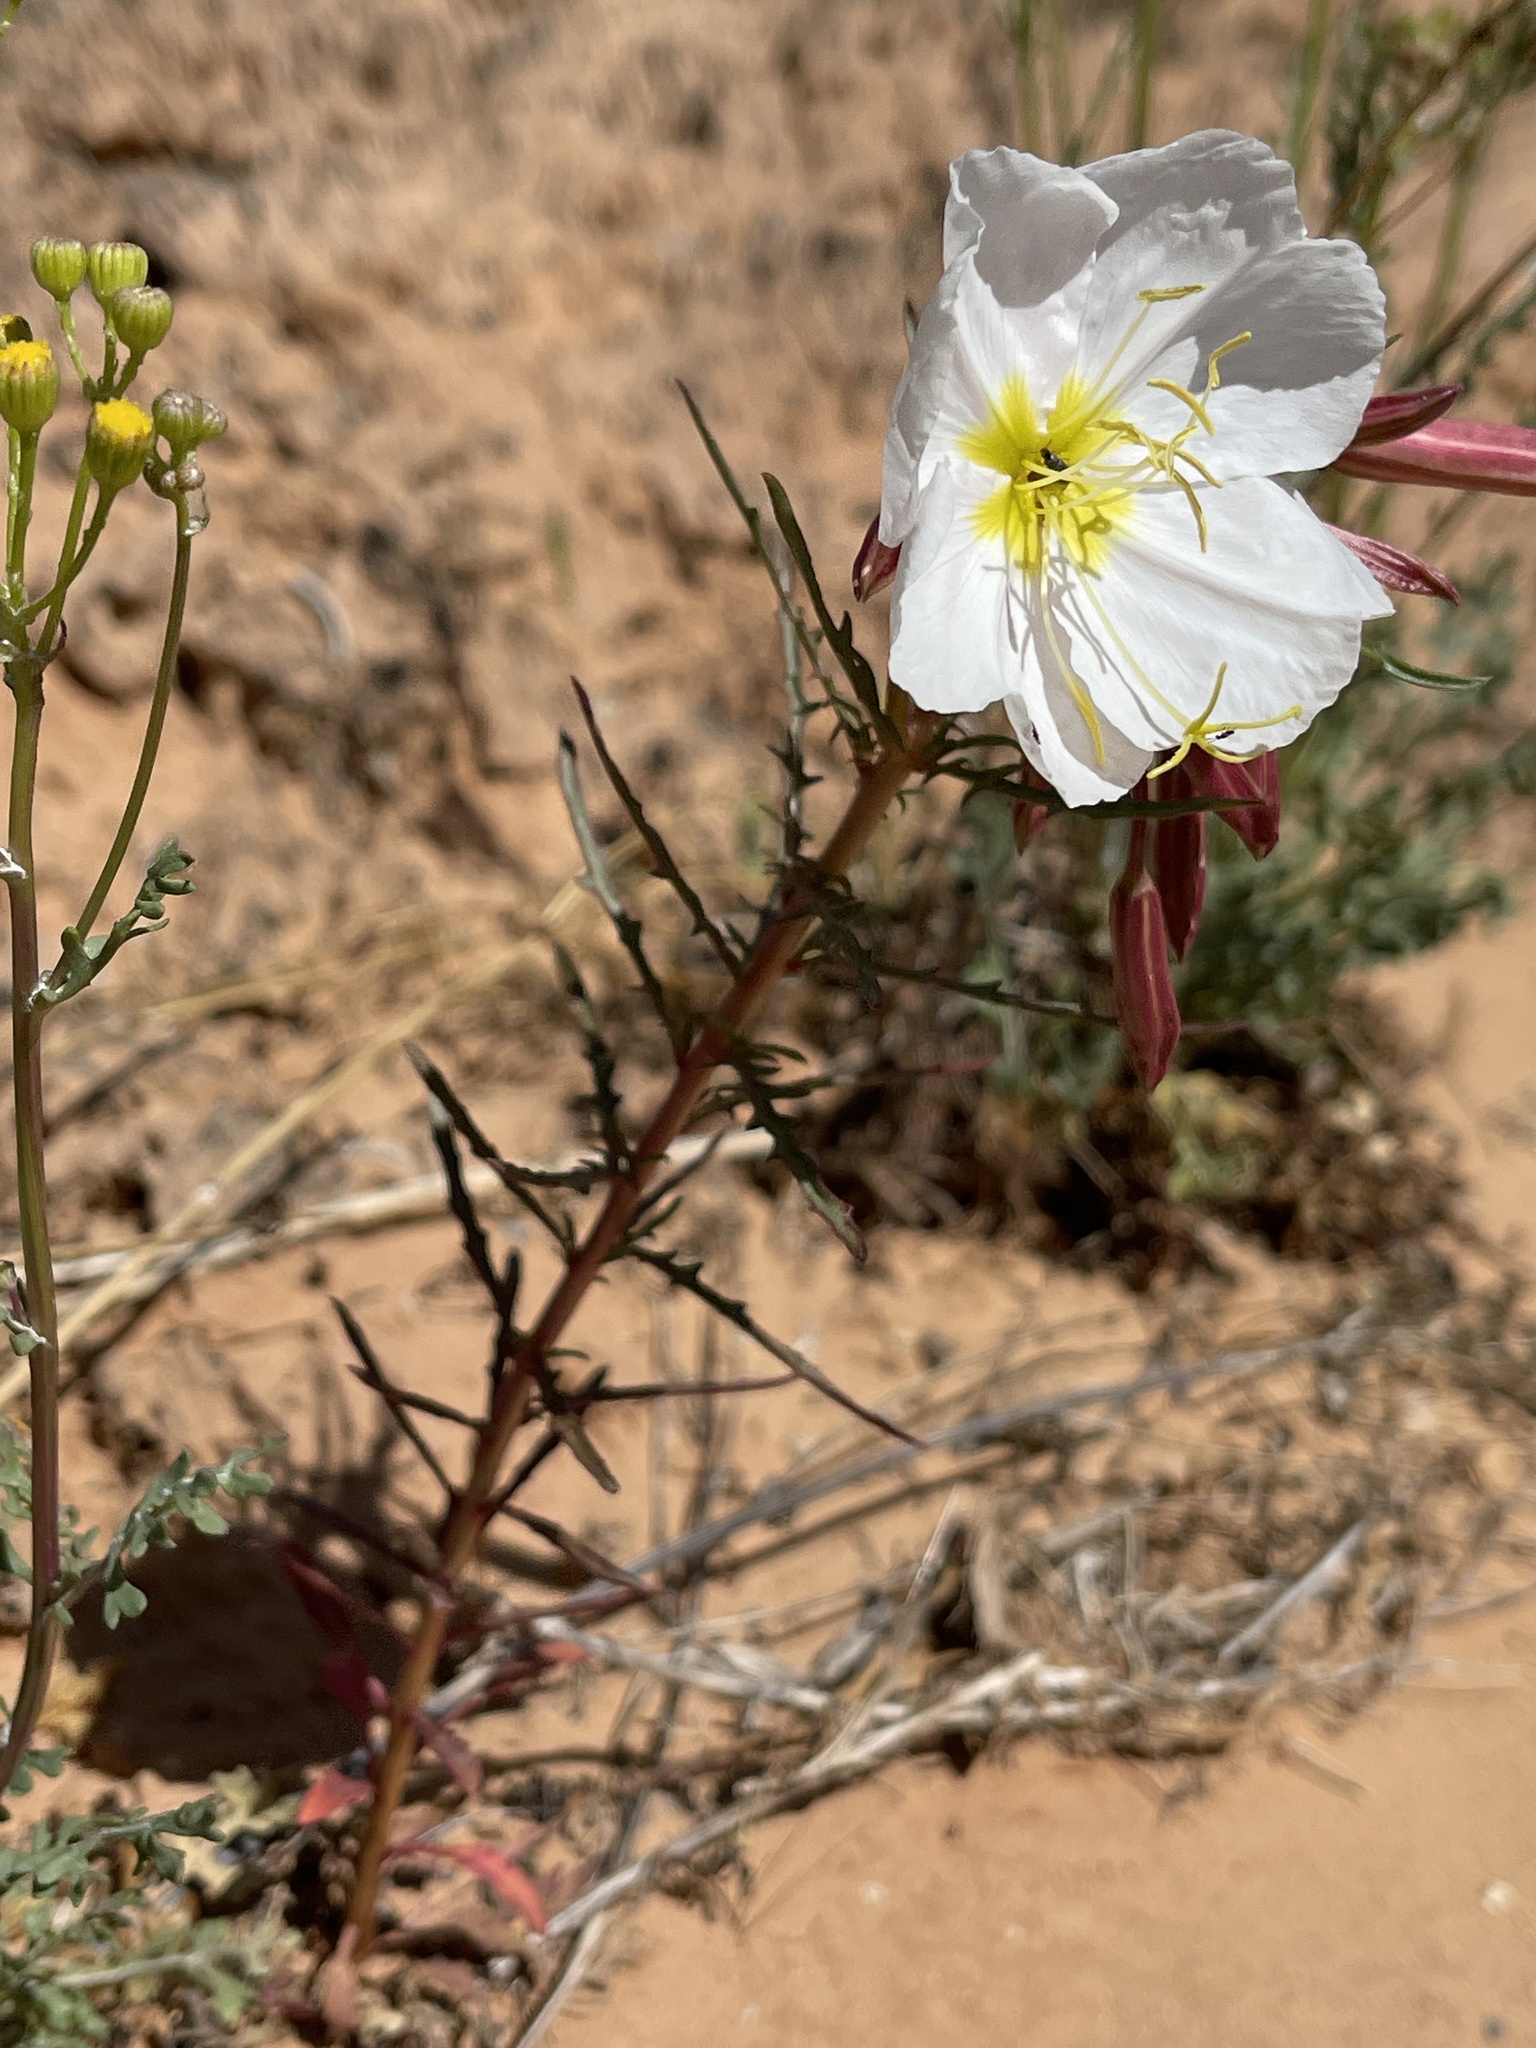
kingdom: Plantae
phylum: Tracheophyta
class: Magnoliopsida
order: Myrtales
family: Onagraceae
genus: Oenothera
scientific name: Oenothera pallida
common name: Pale evening-primrose
